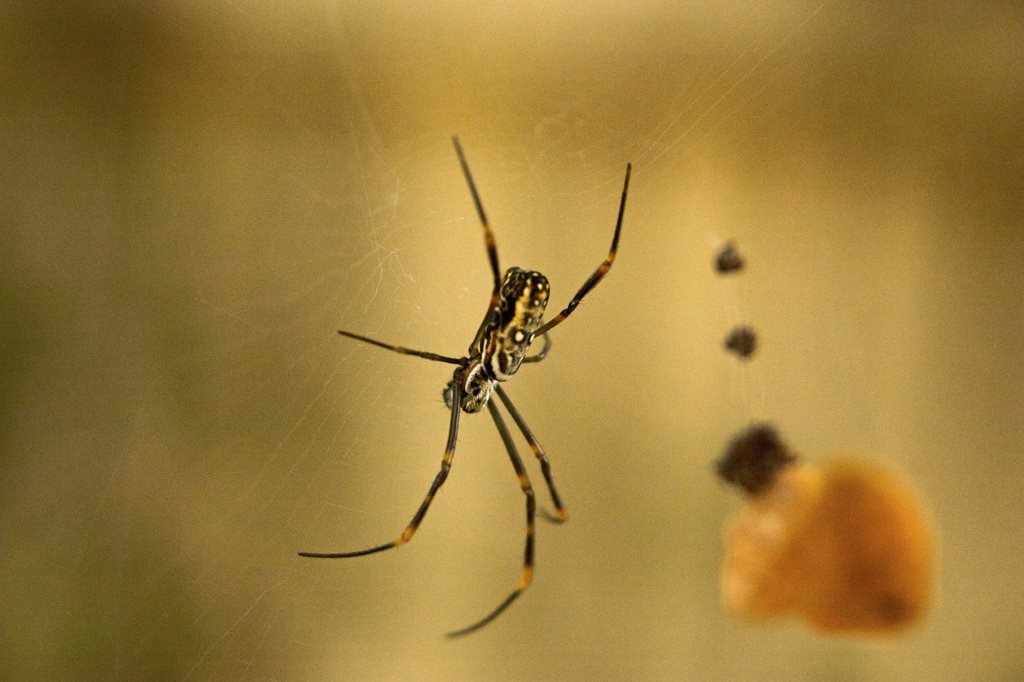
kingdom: Animalia
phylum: Arthropoda
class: Arachnida
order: Araneae
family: Araneidae
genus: Trichonephila
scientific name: Trichonephila plumipes
